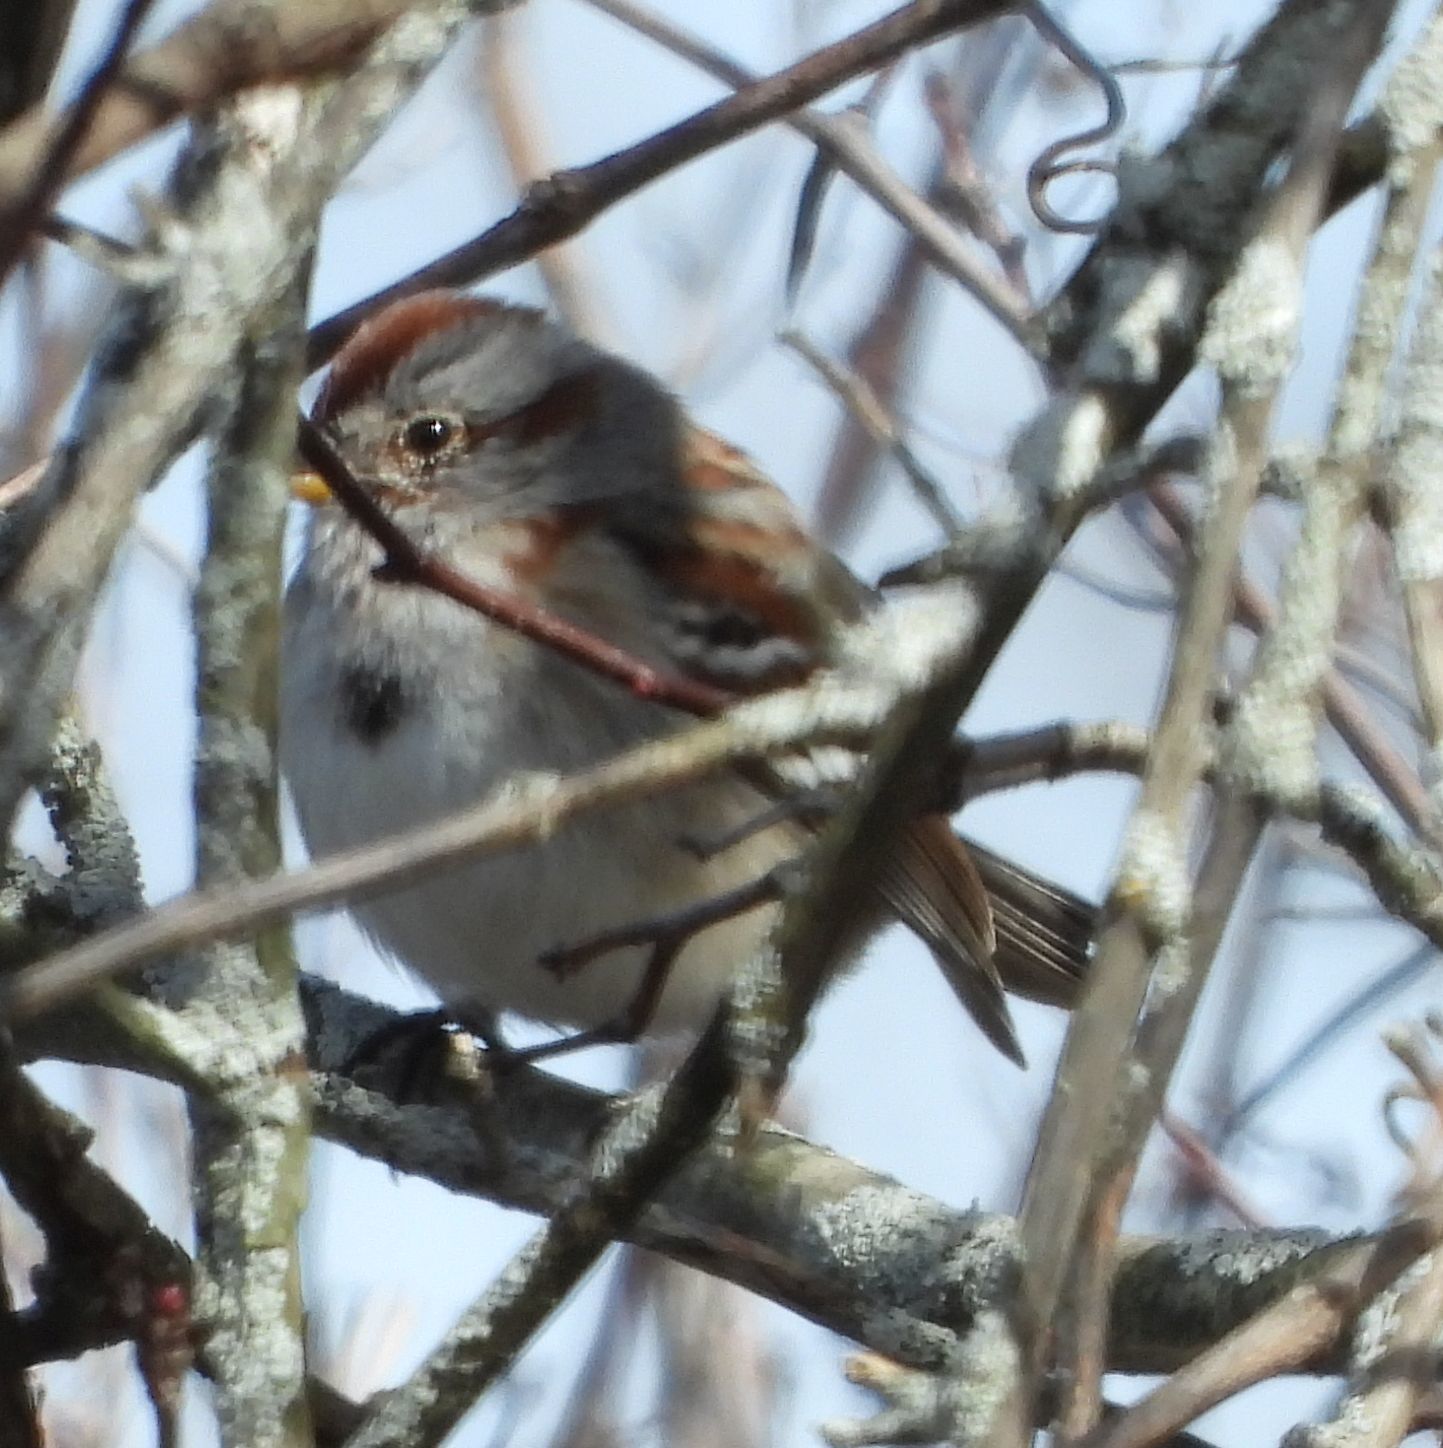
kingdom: Animalia
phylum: Chordata
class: Aves
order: Passeriformes
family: Passerellidae
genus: Spizelloides
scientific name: Spizelloides arborea
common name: American tree sparrow
